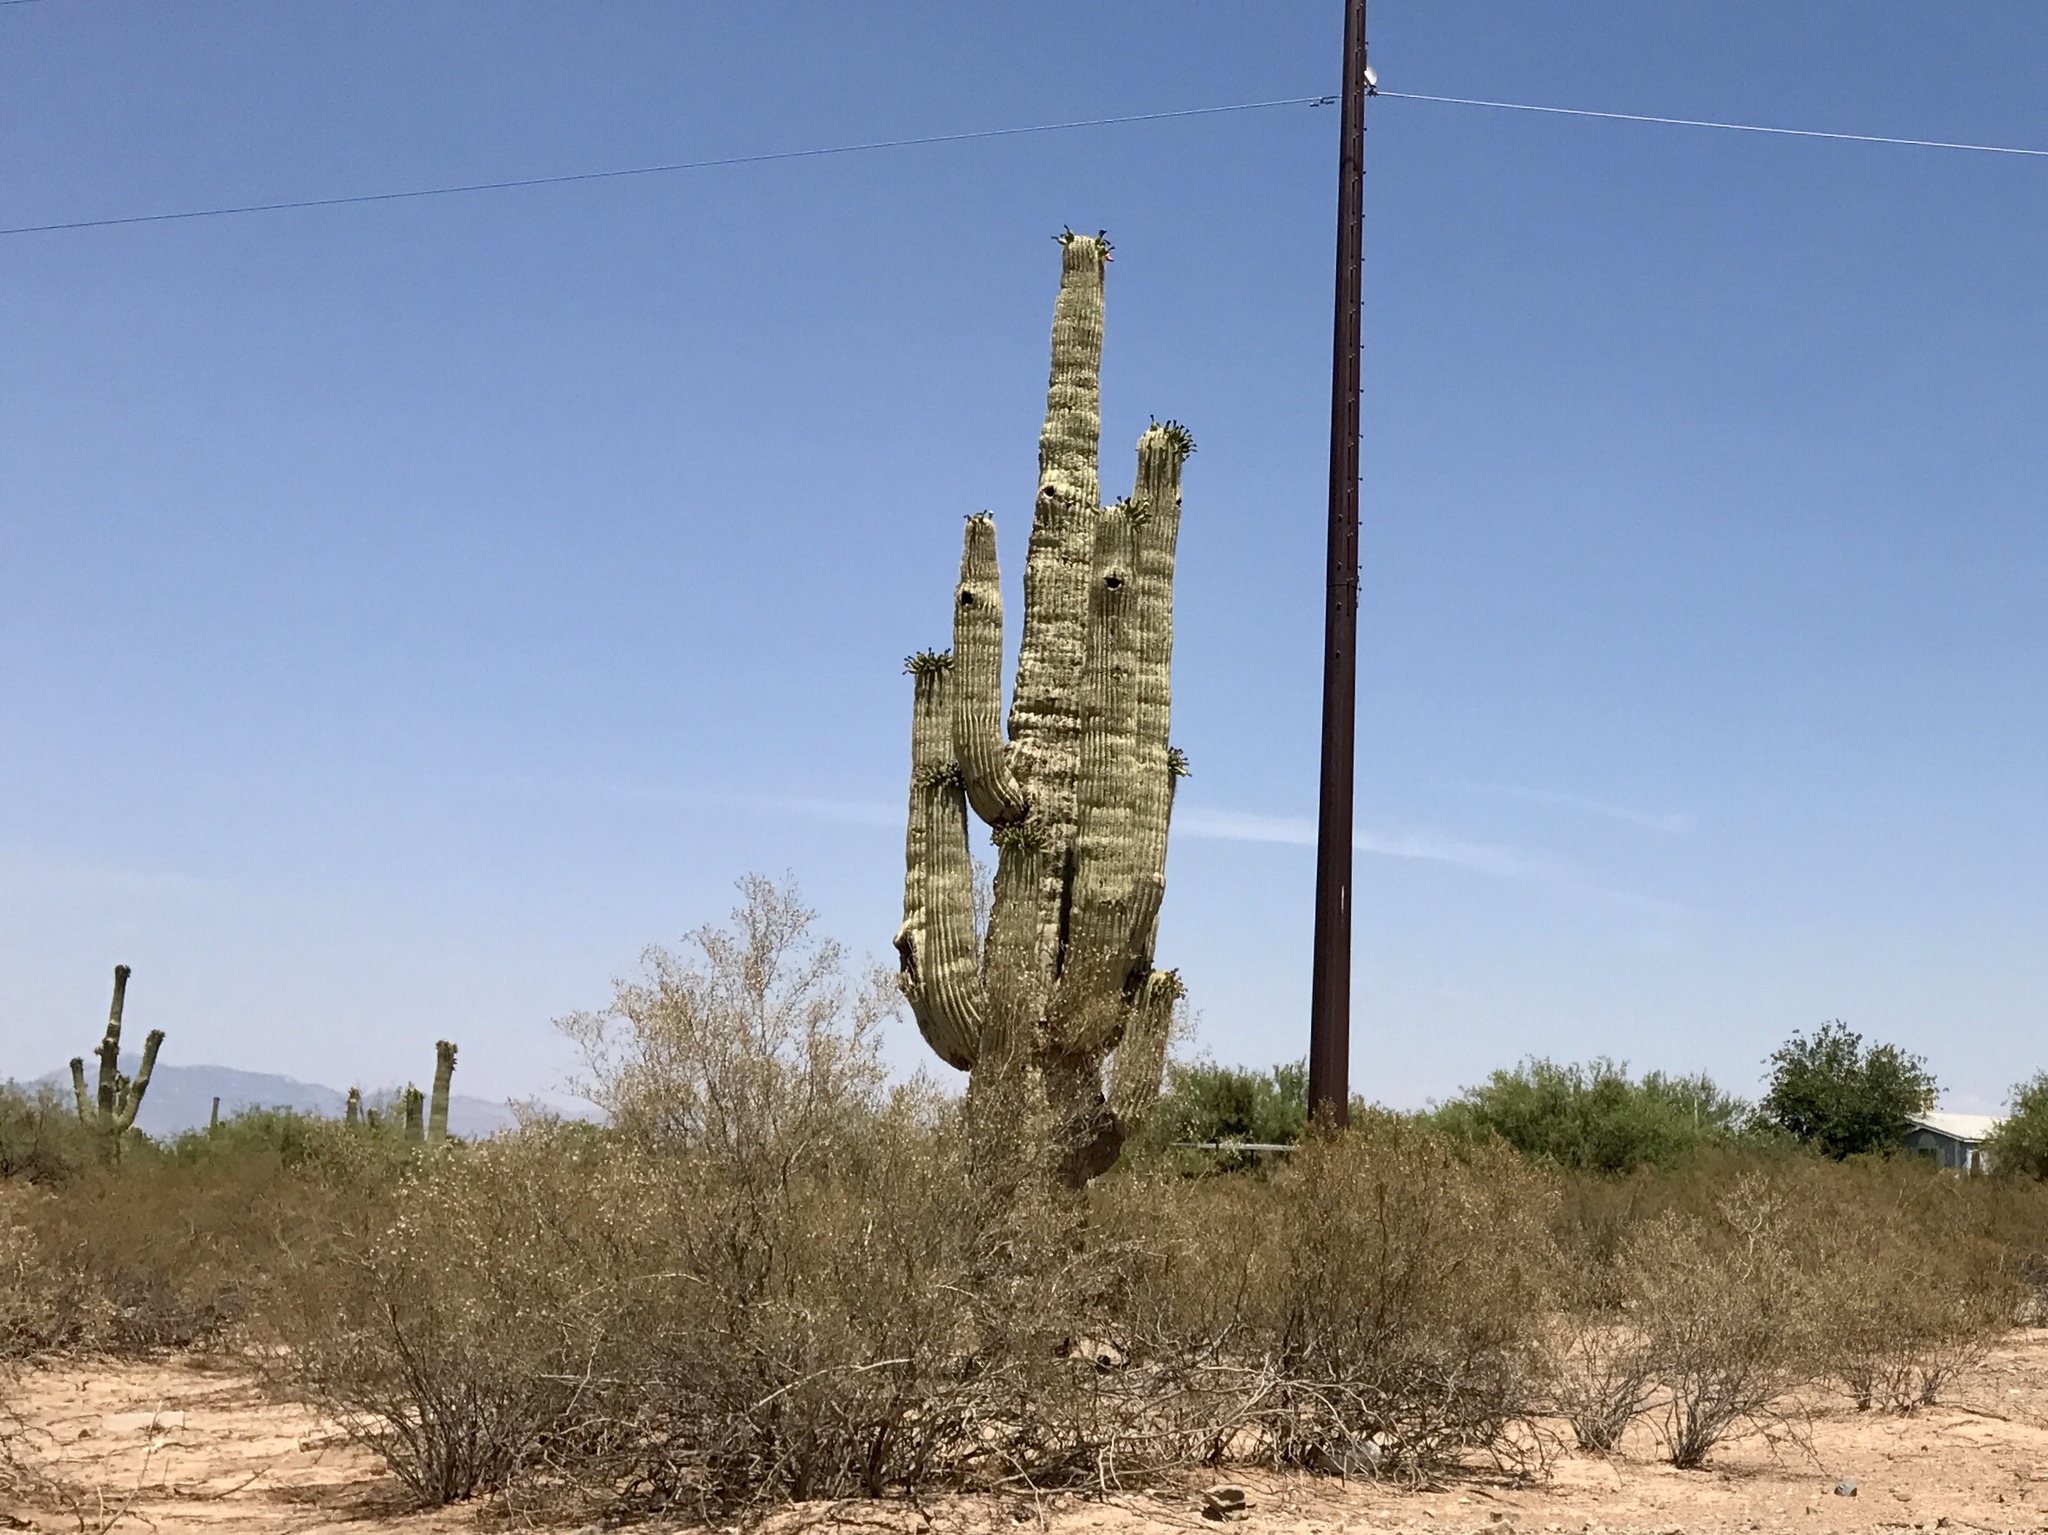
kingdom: Plantae
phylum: Tracheophyta
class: Magnoliopsida
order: Caryophyllales
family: Cactaceae
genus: Carnegiea
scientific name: Carnegiea gigantea
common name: Saguaro
